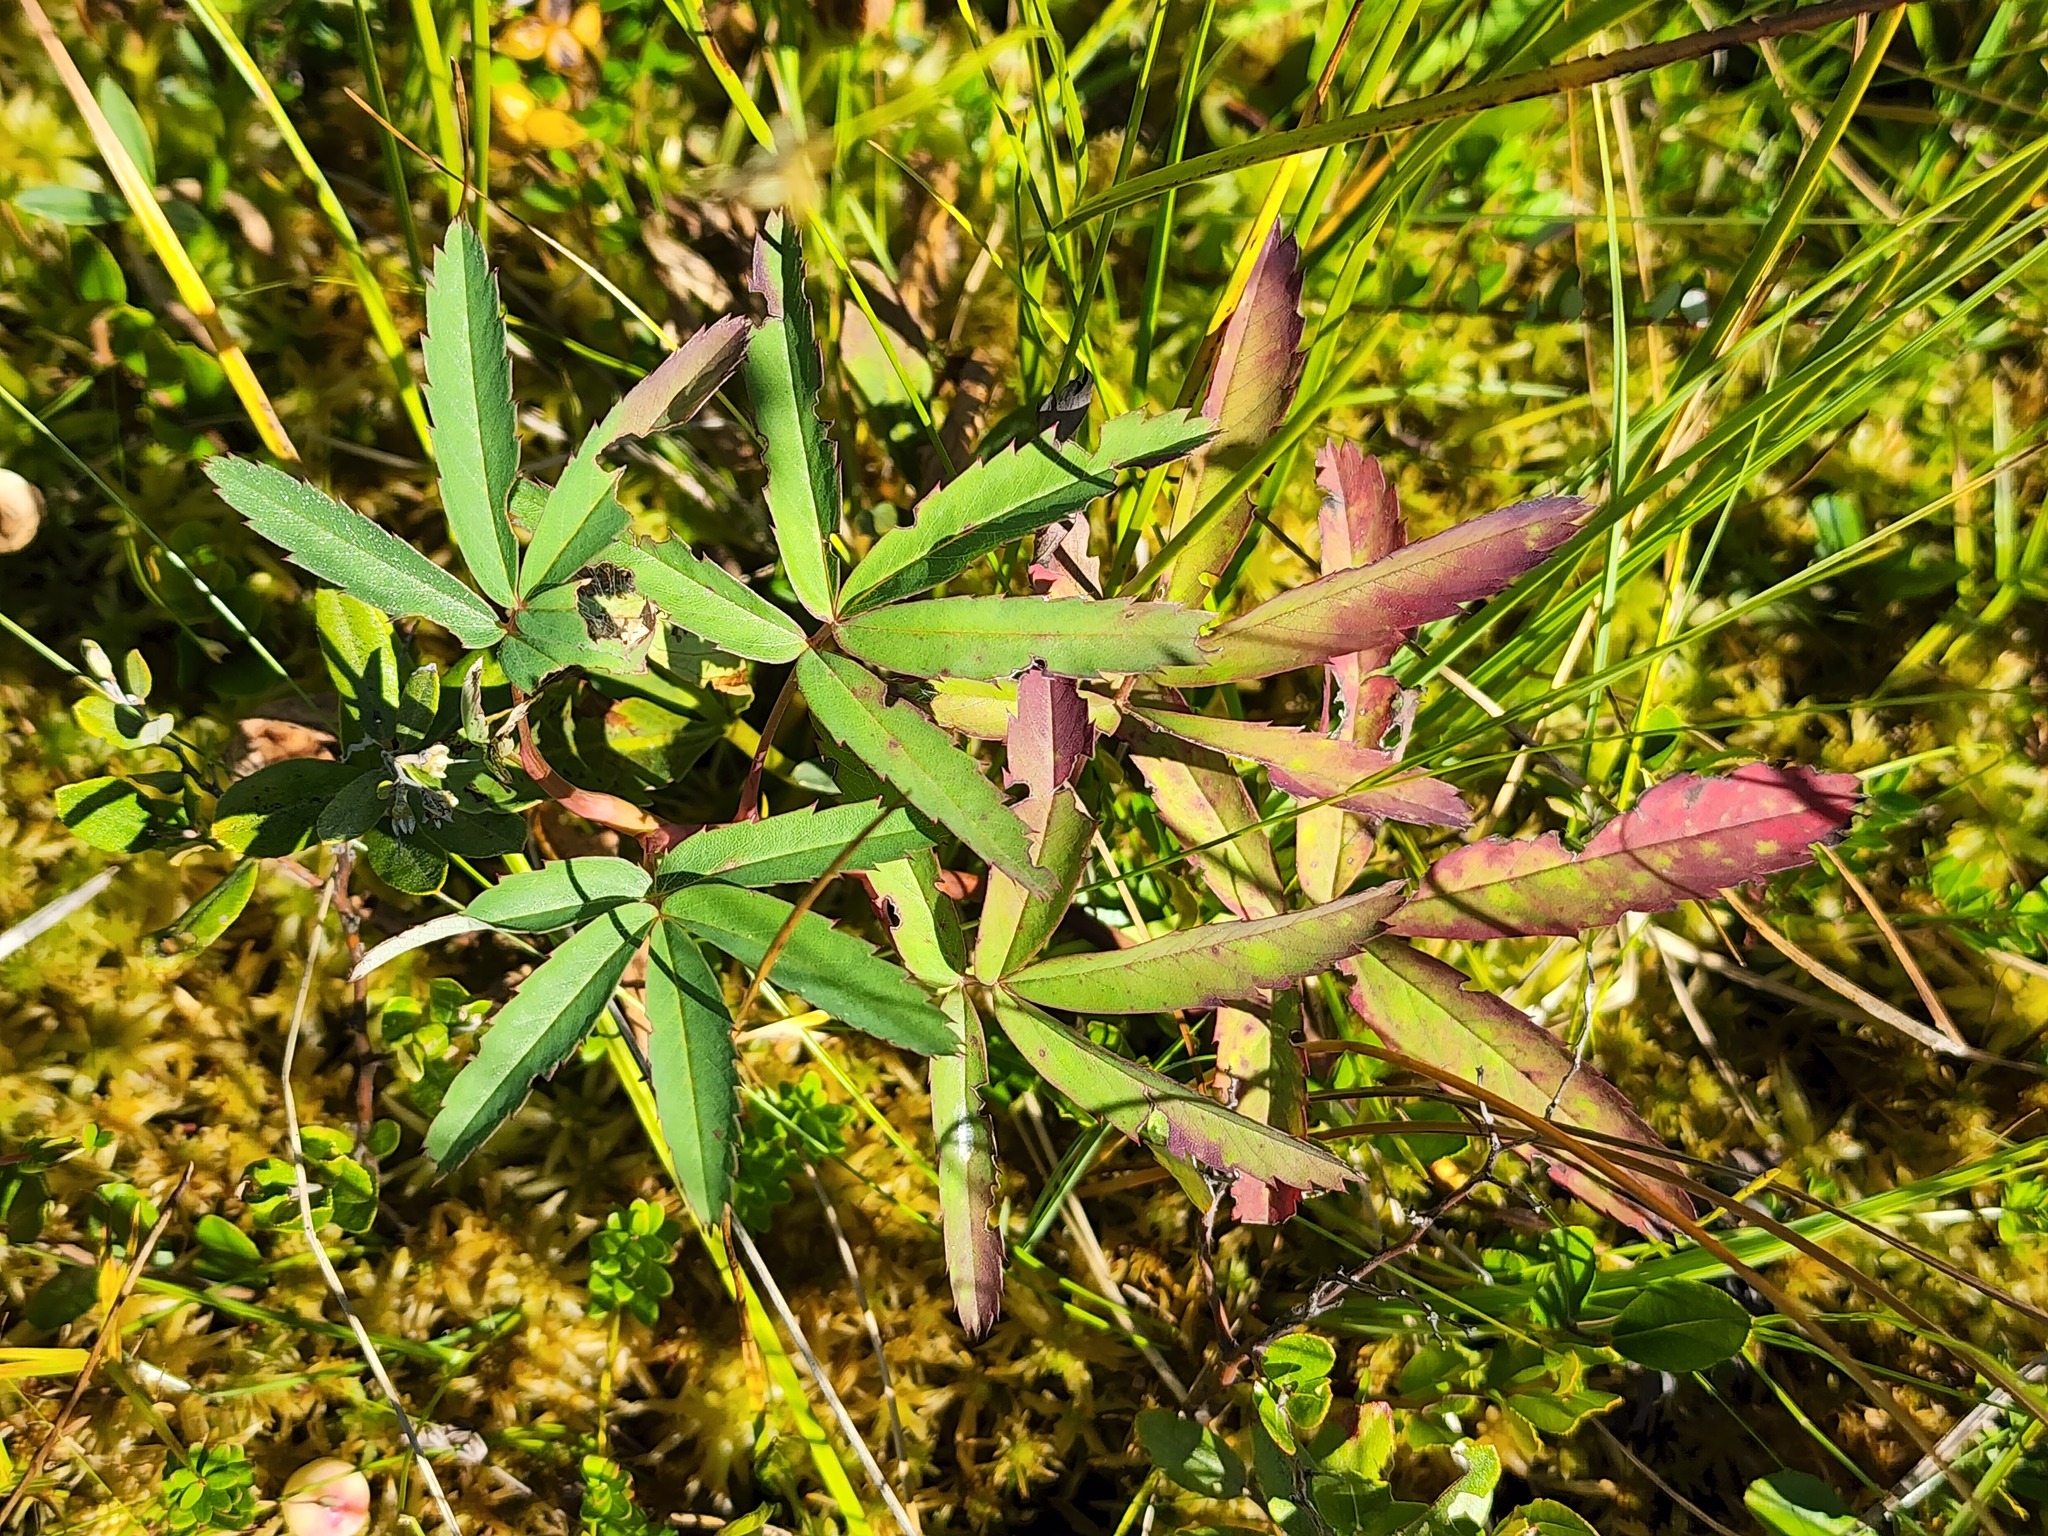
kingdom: Plantae
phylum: Tracheophyta
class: Magnoliopsida
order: Rosales
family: Rosaceae
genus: Comarum
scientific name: Comarum palustre
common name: Marsh cinquefoil
